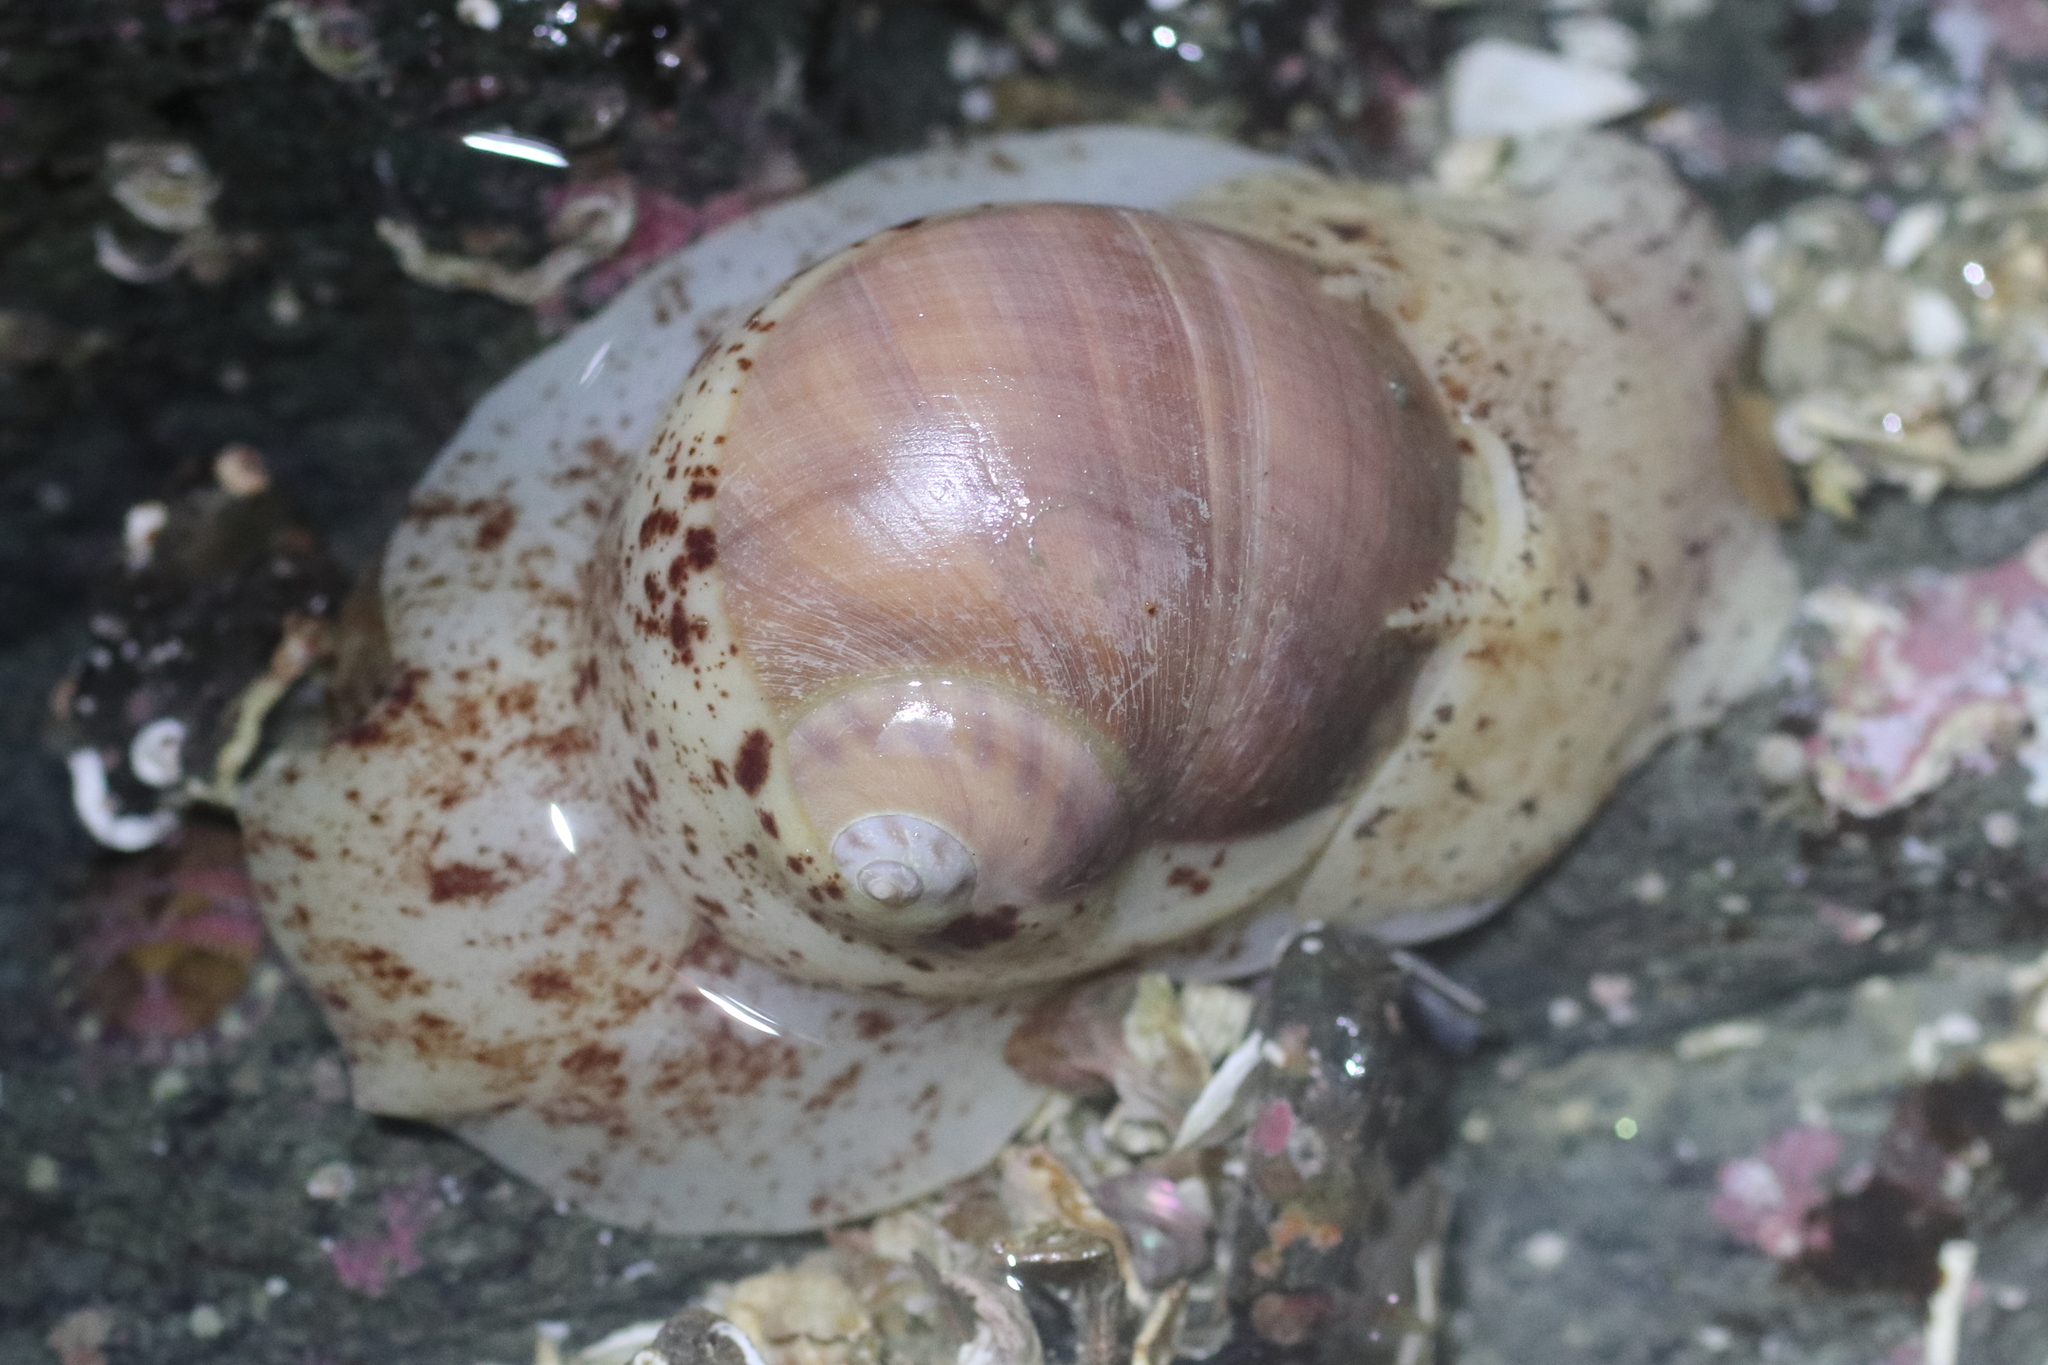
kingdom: Animalia
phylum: Mollusca
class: Gastropoda
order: Littorinimorpha
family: Naticidae
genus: Cryptonatica
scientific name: Cryptonatica aleutica
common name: Aleutian moon snail
